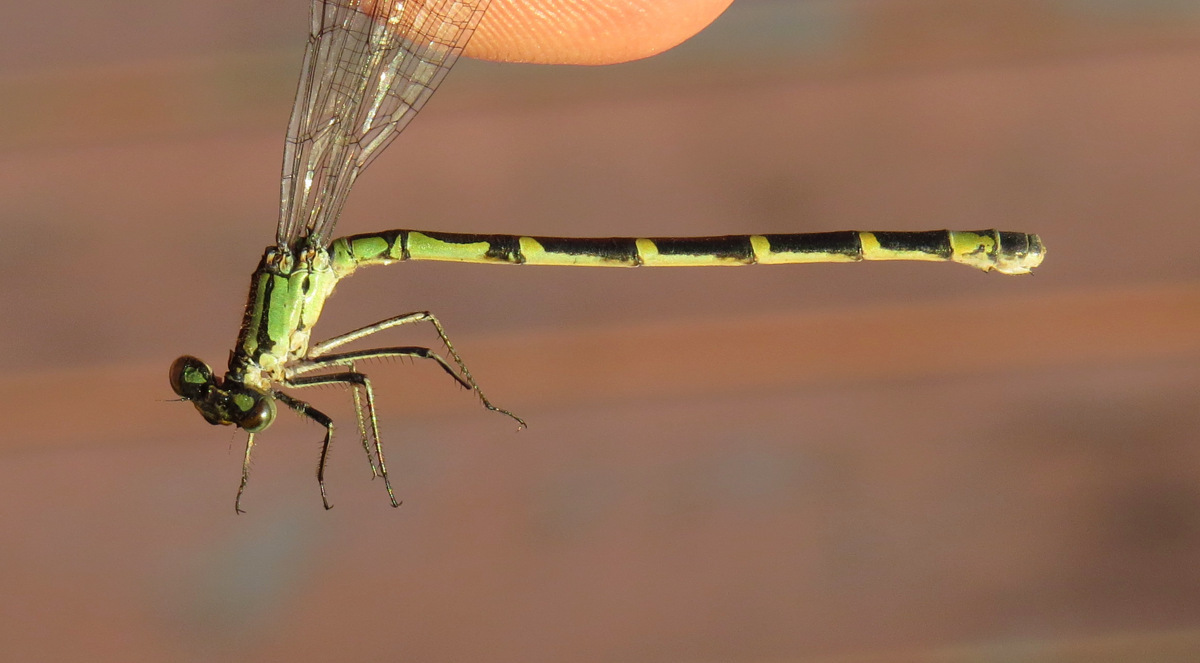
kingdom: Animalia
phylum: Arthropoda
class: Insecta
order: Odonata
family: Coenagrionidae
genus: Enallagma
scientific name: Enallagma boreale
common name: Boreal bluet
